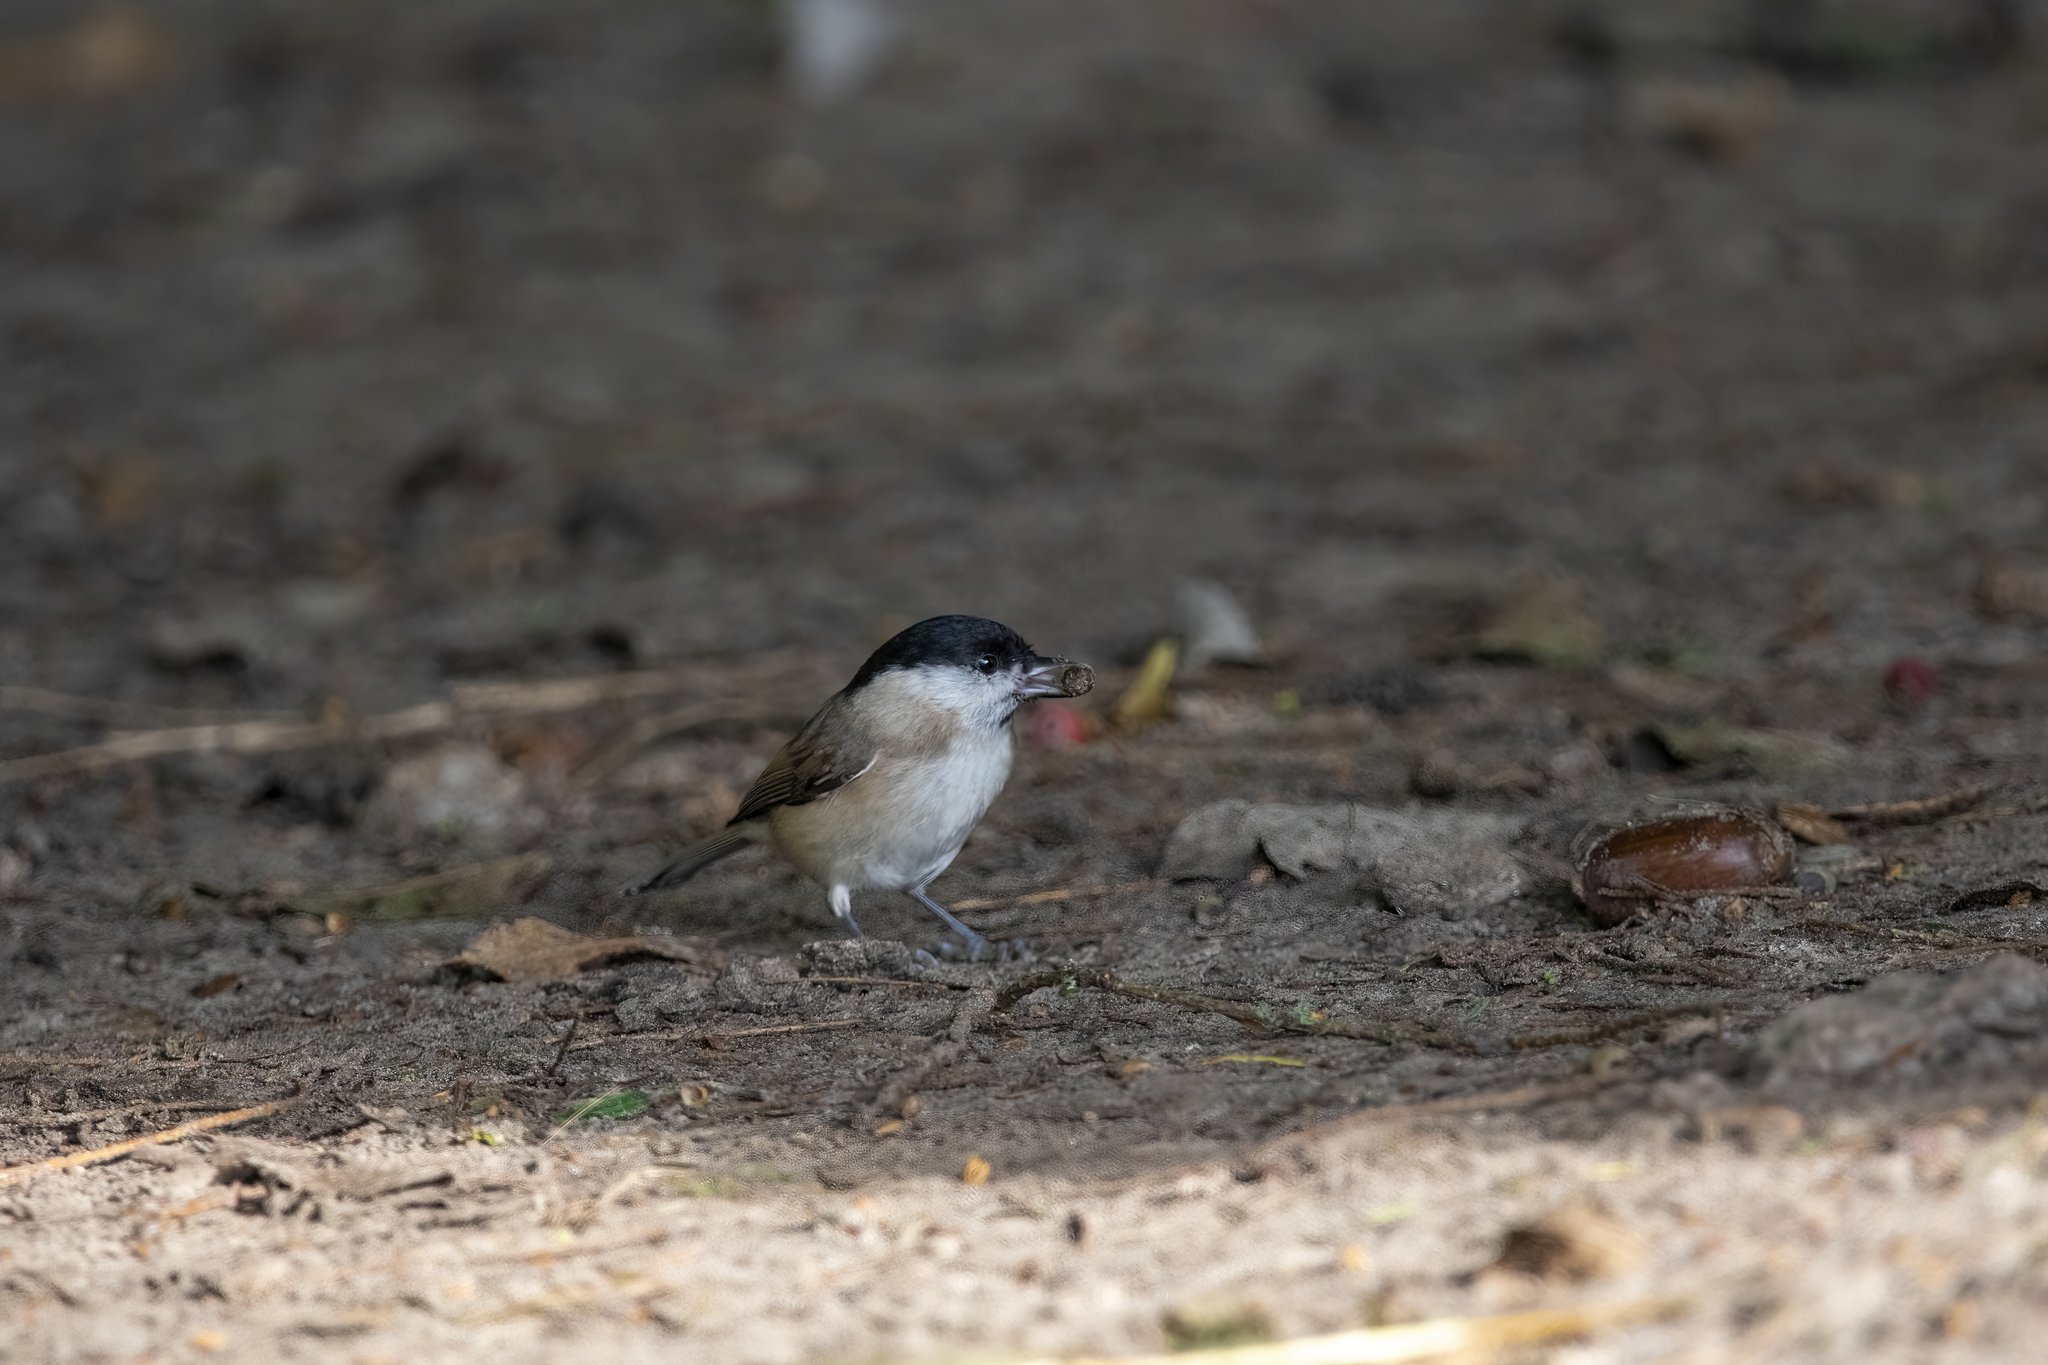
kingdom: Animalia
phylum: Chordata
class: Aves
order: Passeriformes
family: Paridae
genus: Poecile
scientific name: Poecile palustris
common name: Marsh tit
